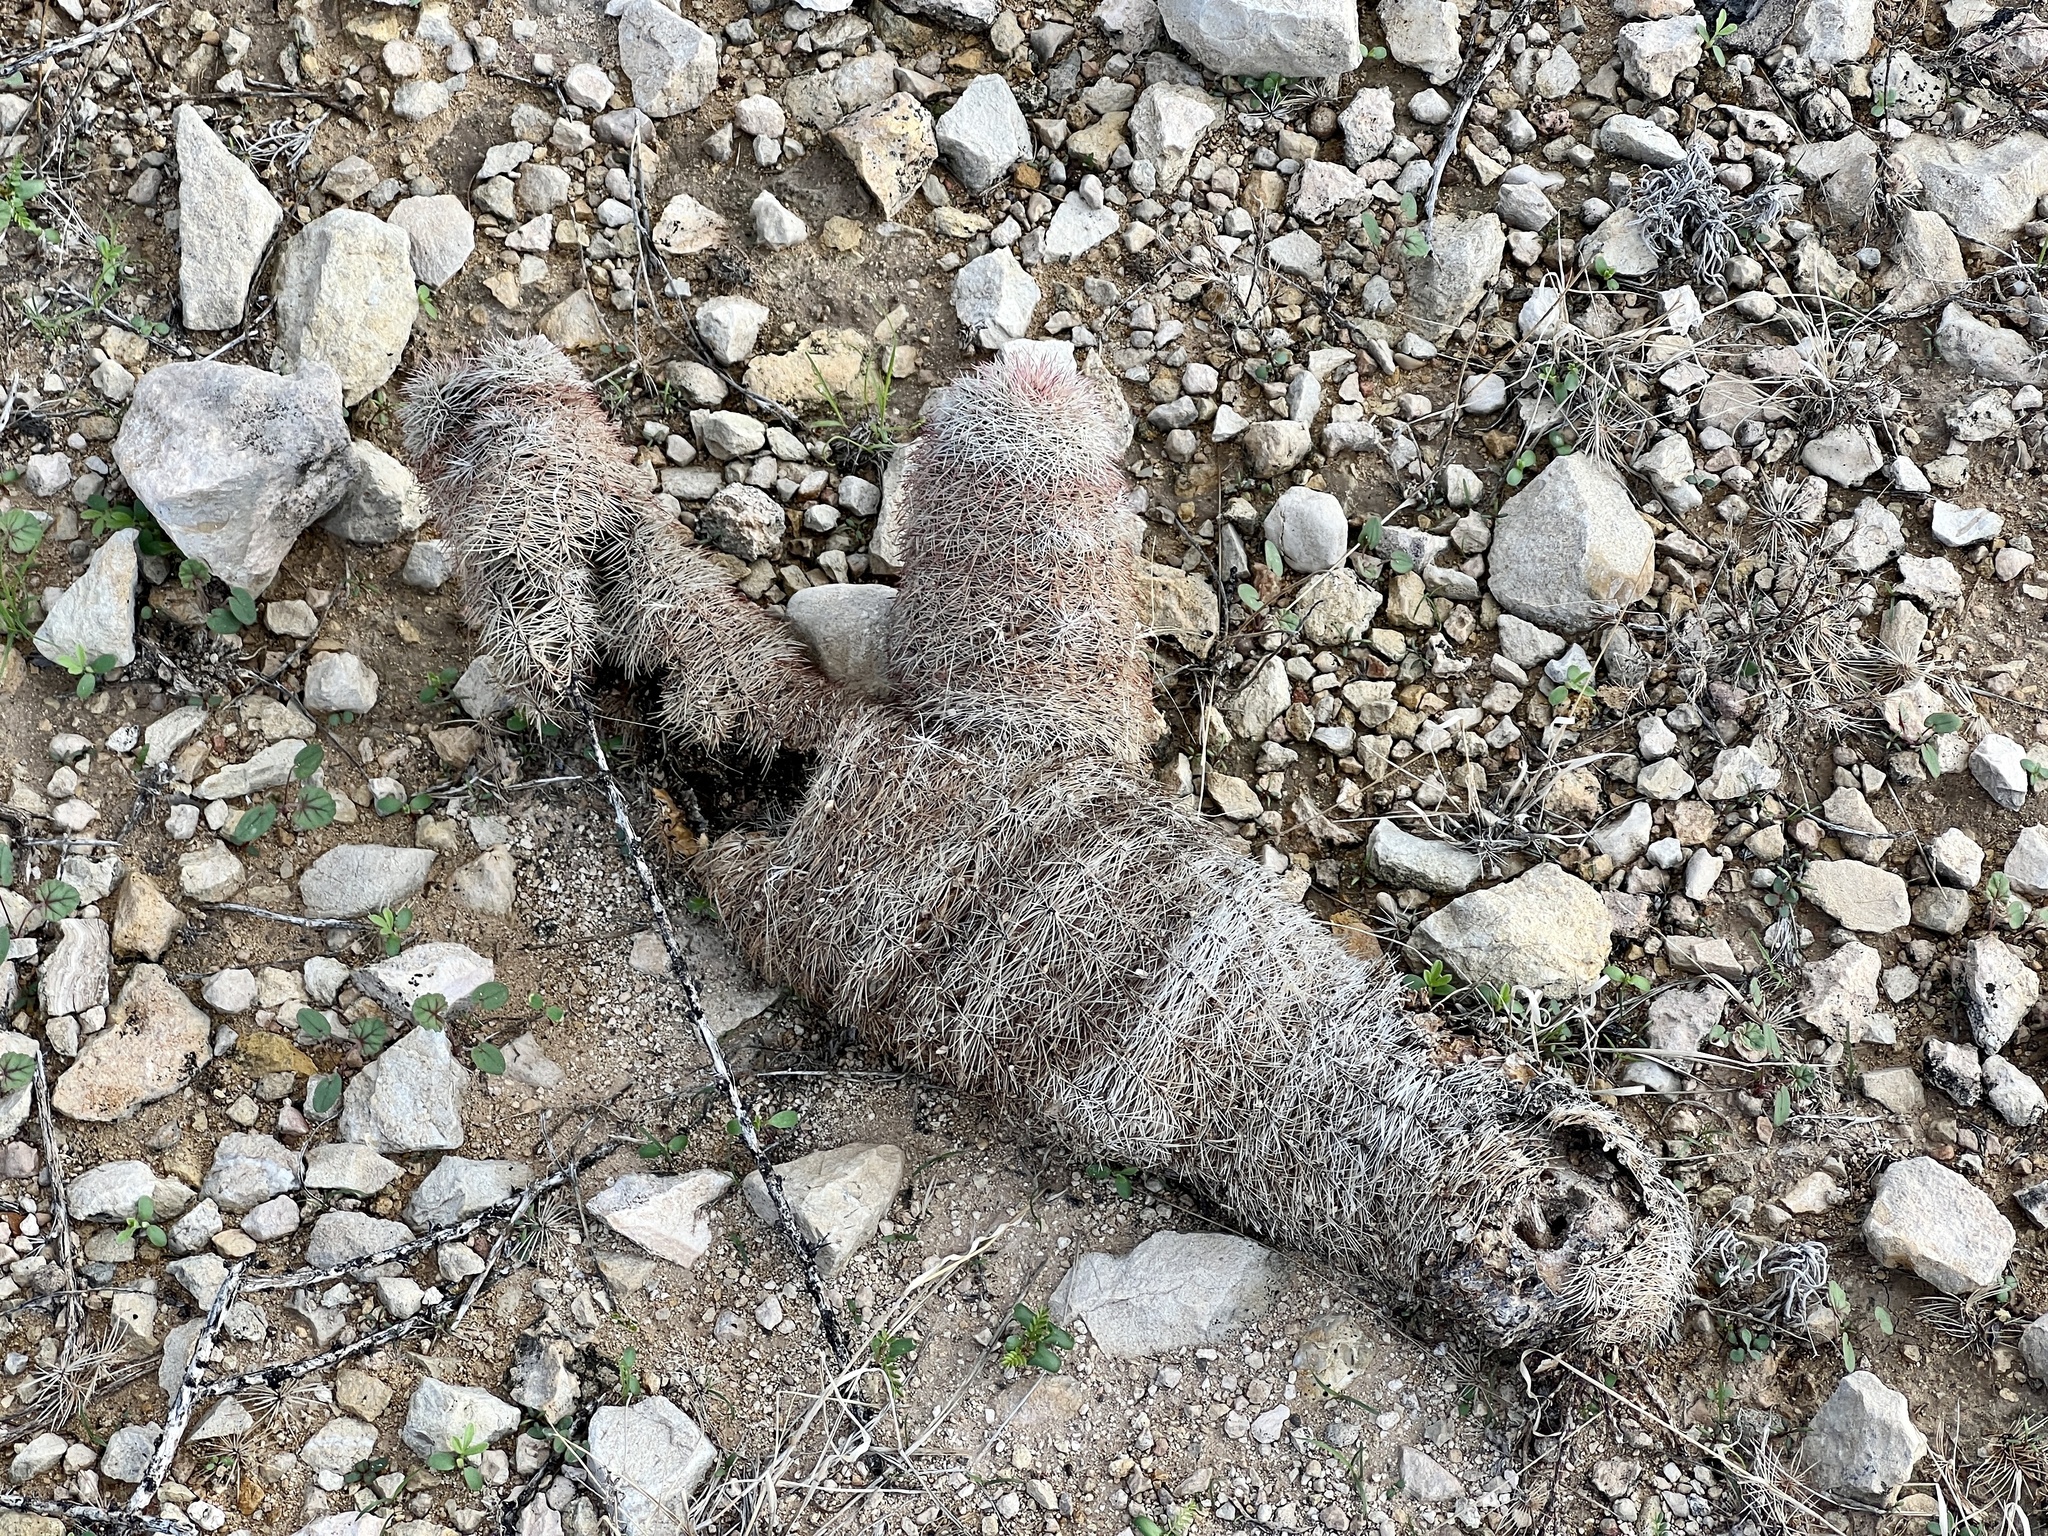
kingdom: Plantae
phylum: Tracheophyta
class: Magnoliopsida
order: Caryophyllales
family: Cactaceae
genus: Echinocereus
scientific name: Echinocereus dasyacanthus
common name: Spiny hedgehog cactus
